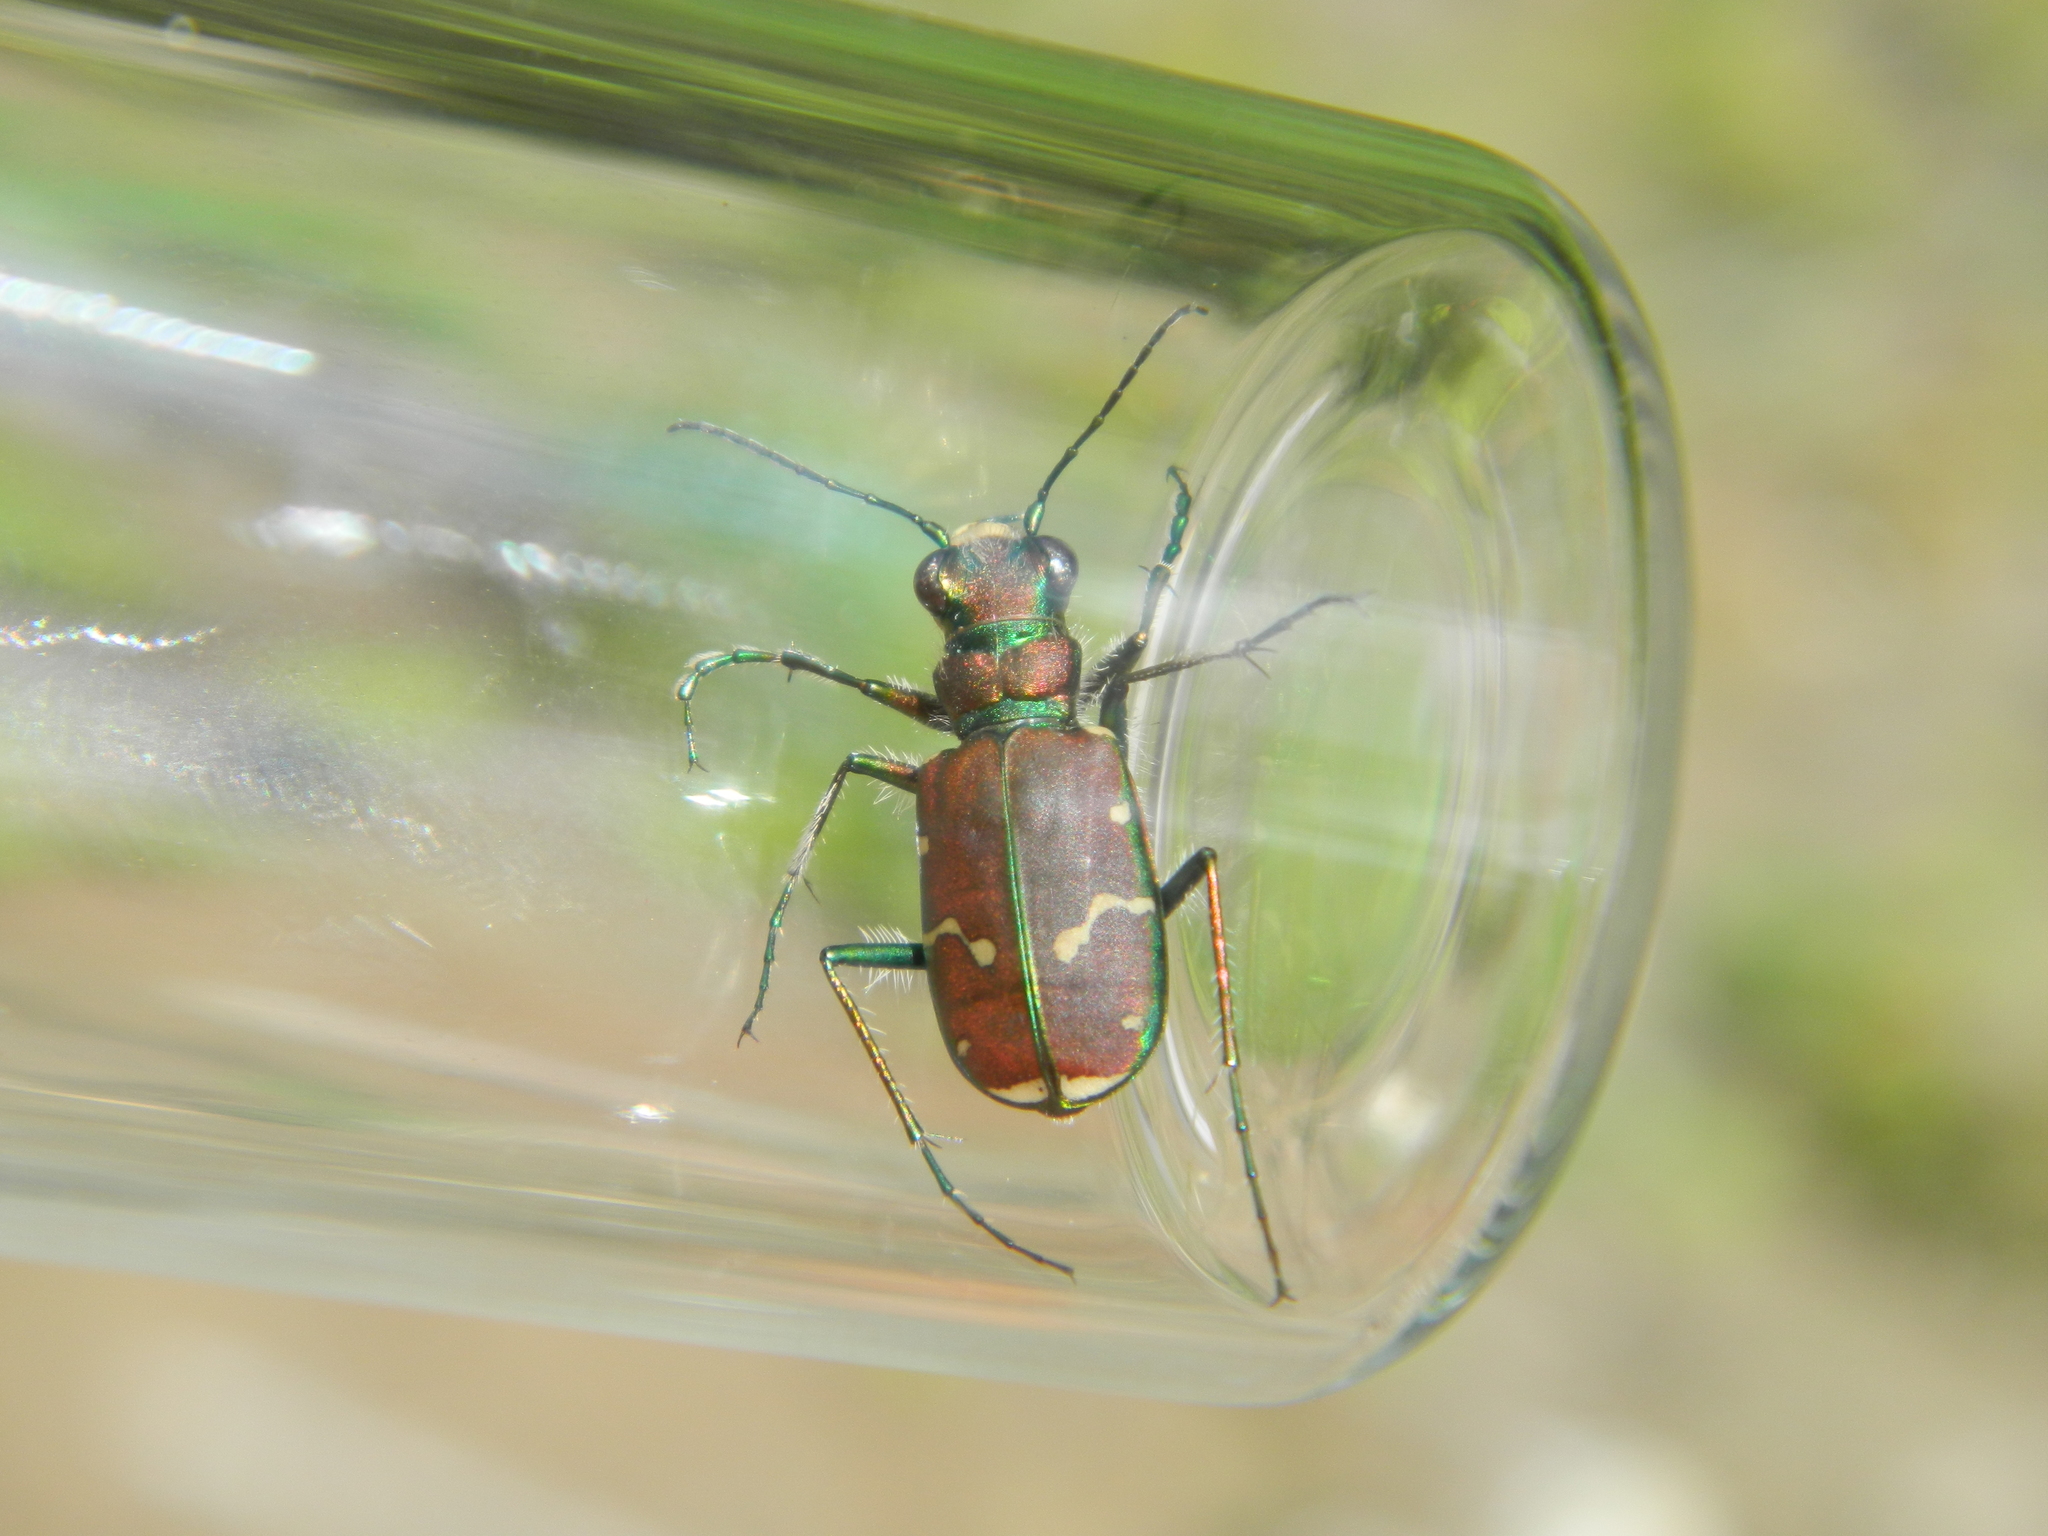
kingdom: Animalia
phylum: Arthropoda
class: Insecta
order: Coleoptera
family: Carabidae
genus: Cicindela
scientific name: Cicindela limbalis
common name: Common claybank tiger beetle
